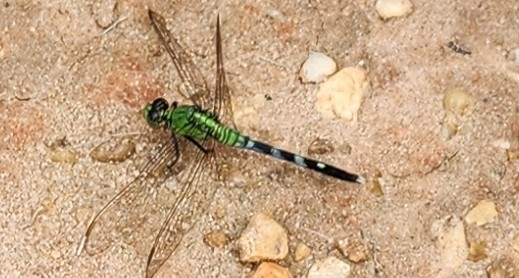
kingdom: Animalia
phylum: Arthropoda
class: Insecta
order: Odonata
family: Libellulidae
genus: Erythemis
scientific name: Erythemis simplicicollis
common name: Eastern pondhawk
